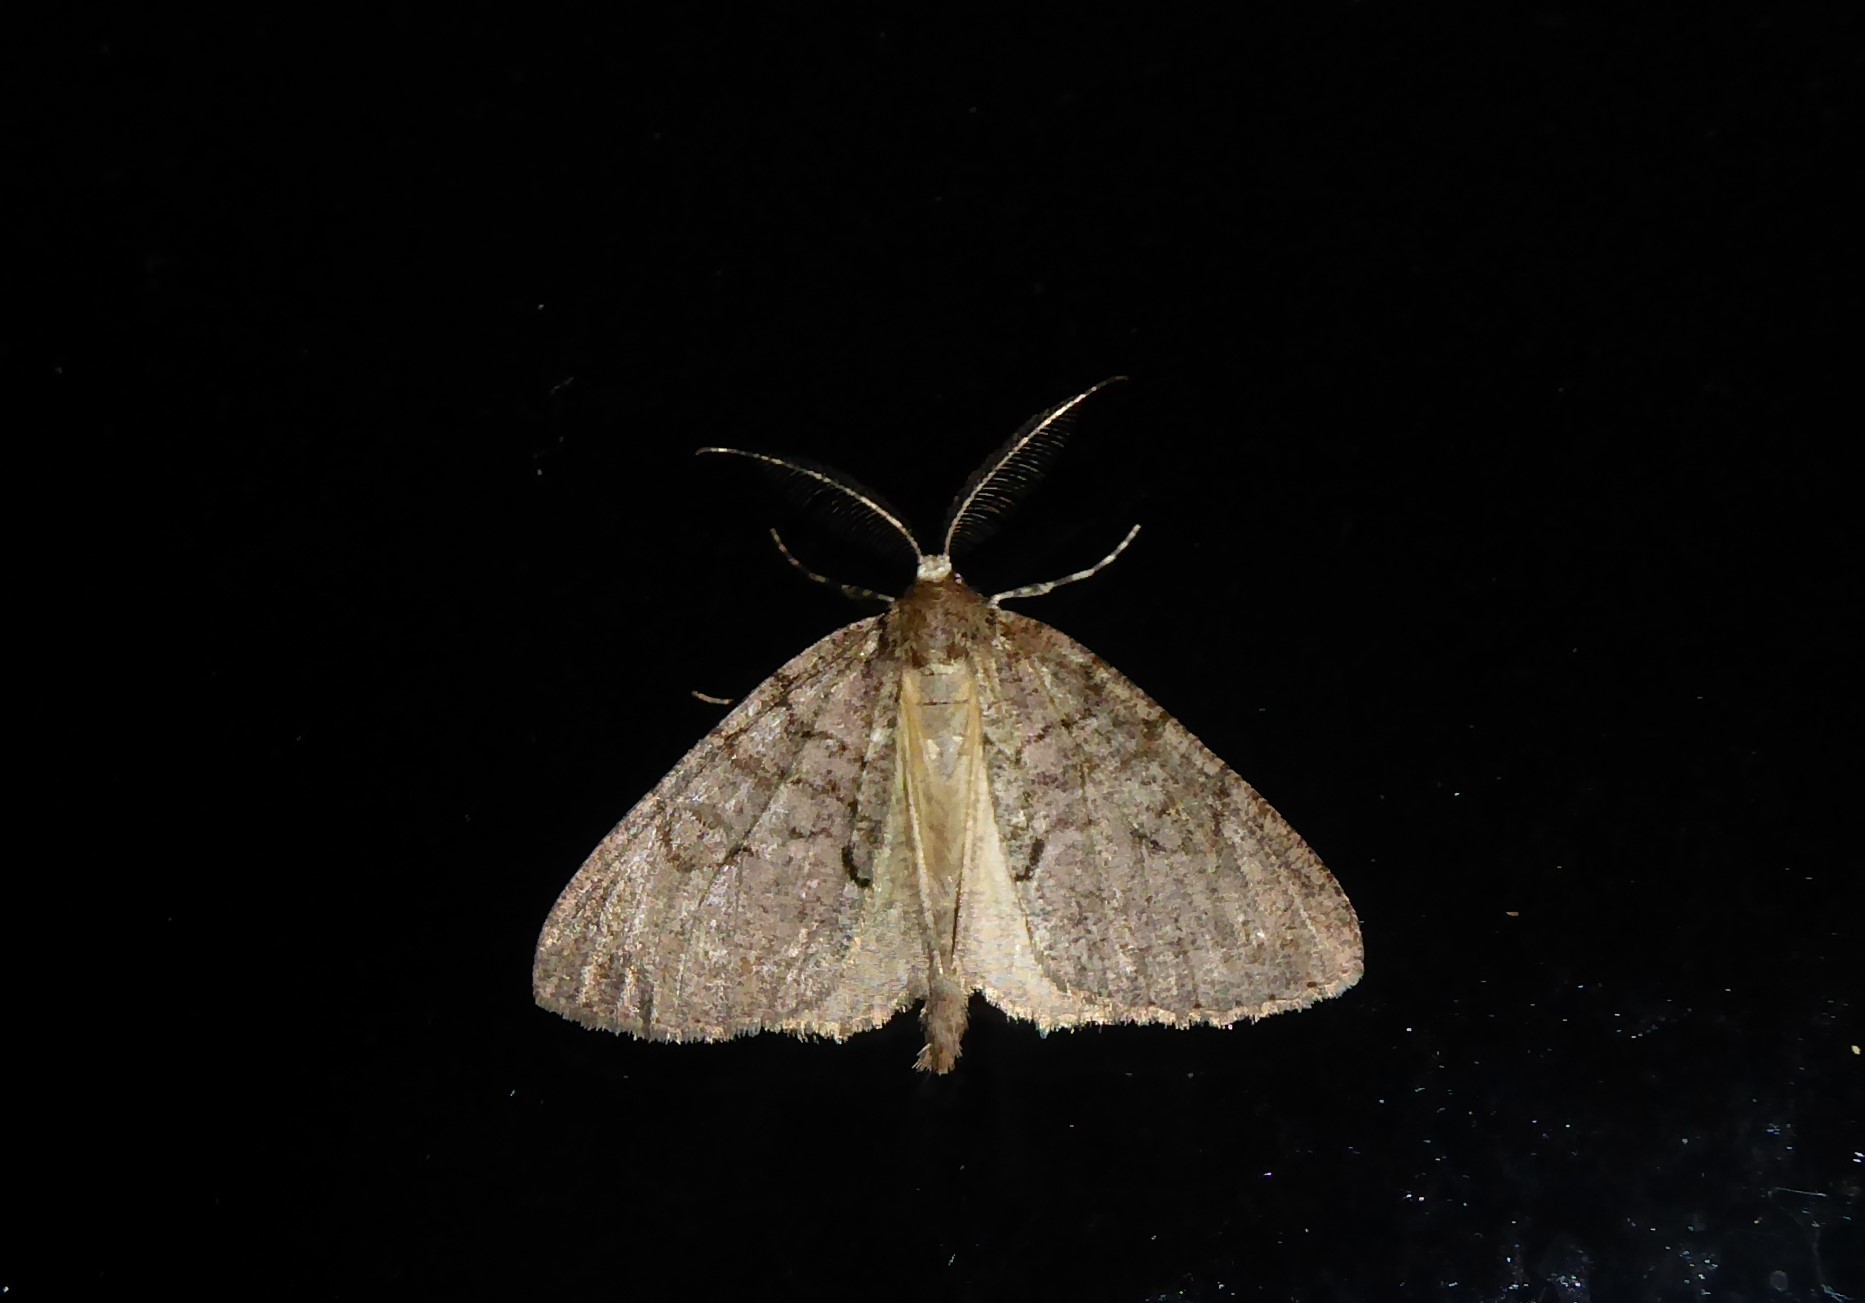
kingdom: Animalia
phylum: Arthropoda
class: Insecta
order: Lepidoptera
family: Geometridae
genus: Pseudocoremia
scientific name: Pseudocoremia suavis
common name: Common forest looper
